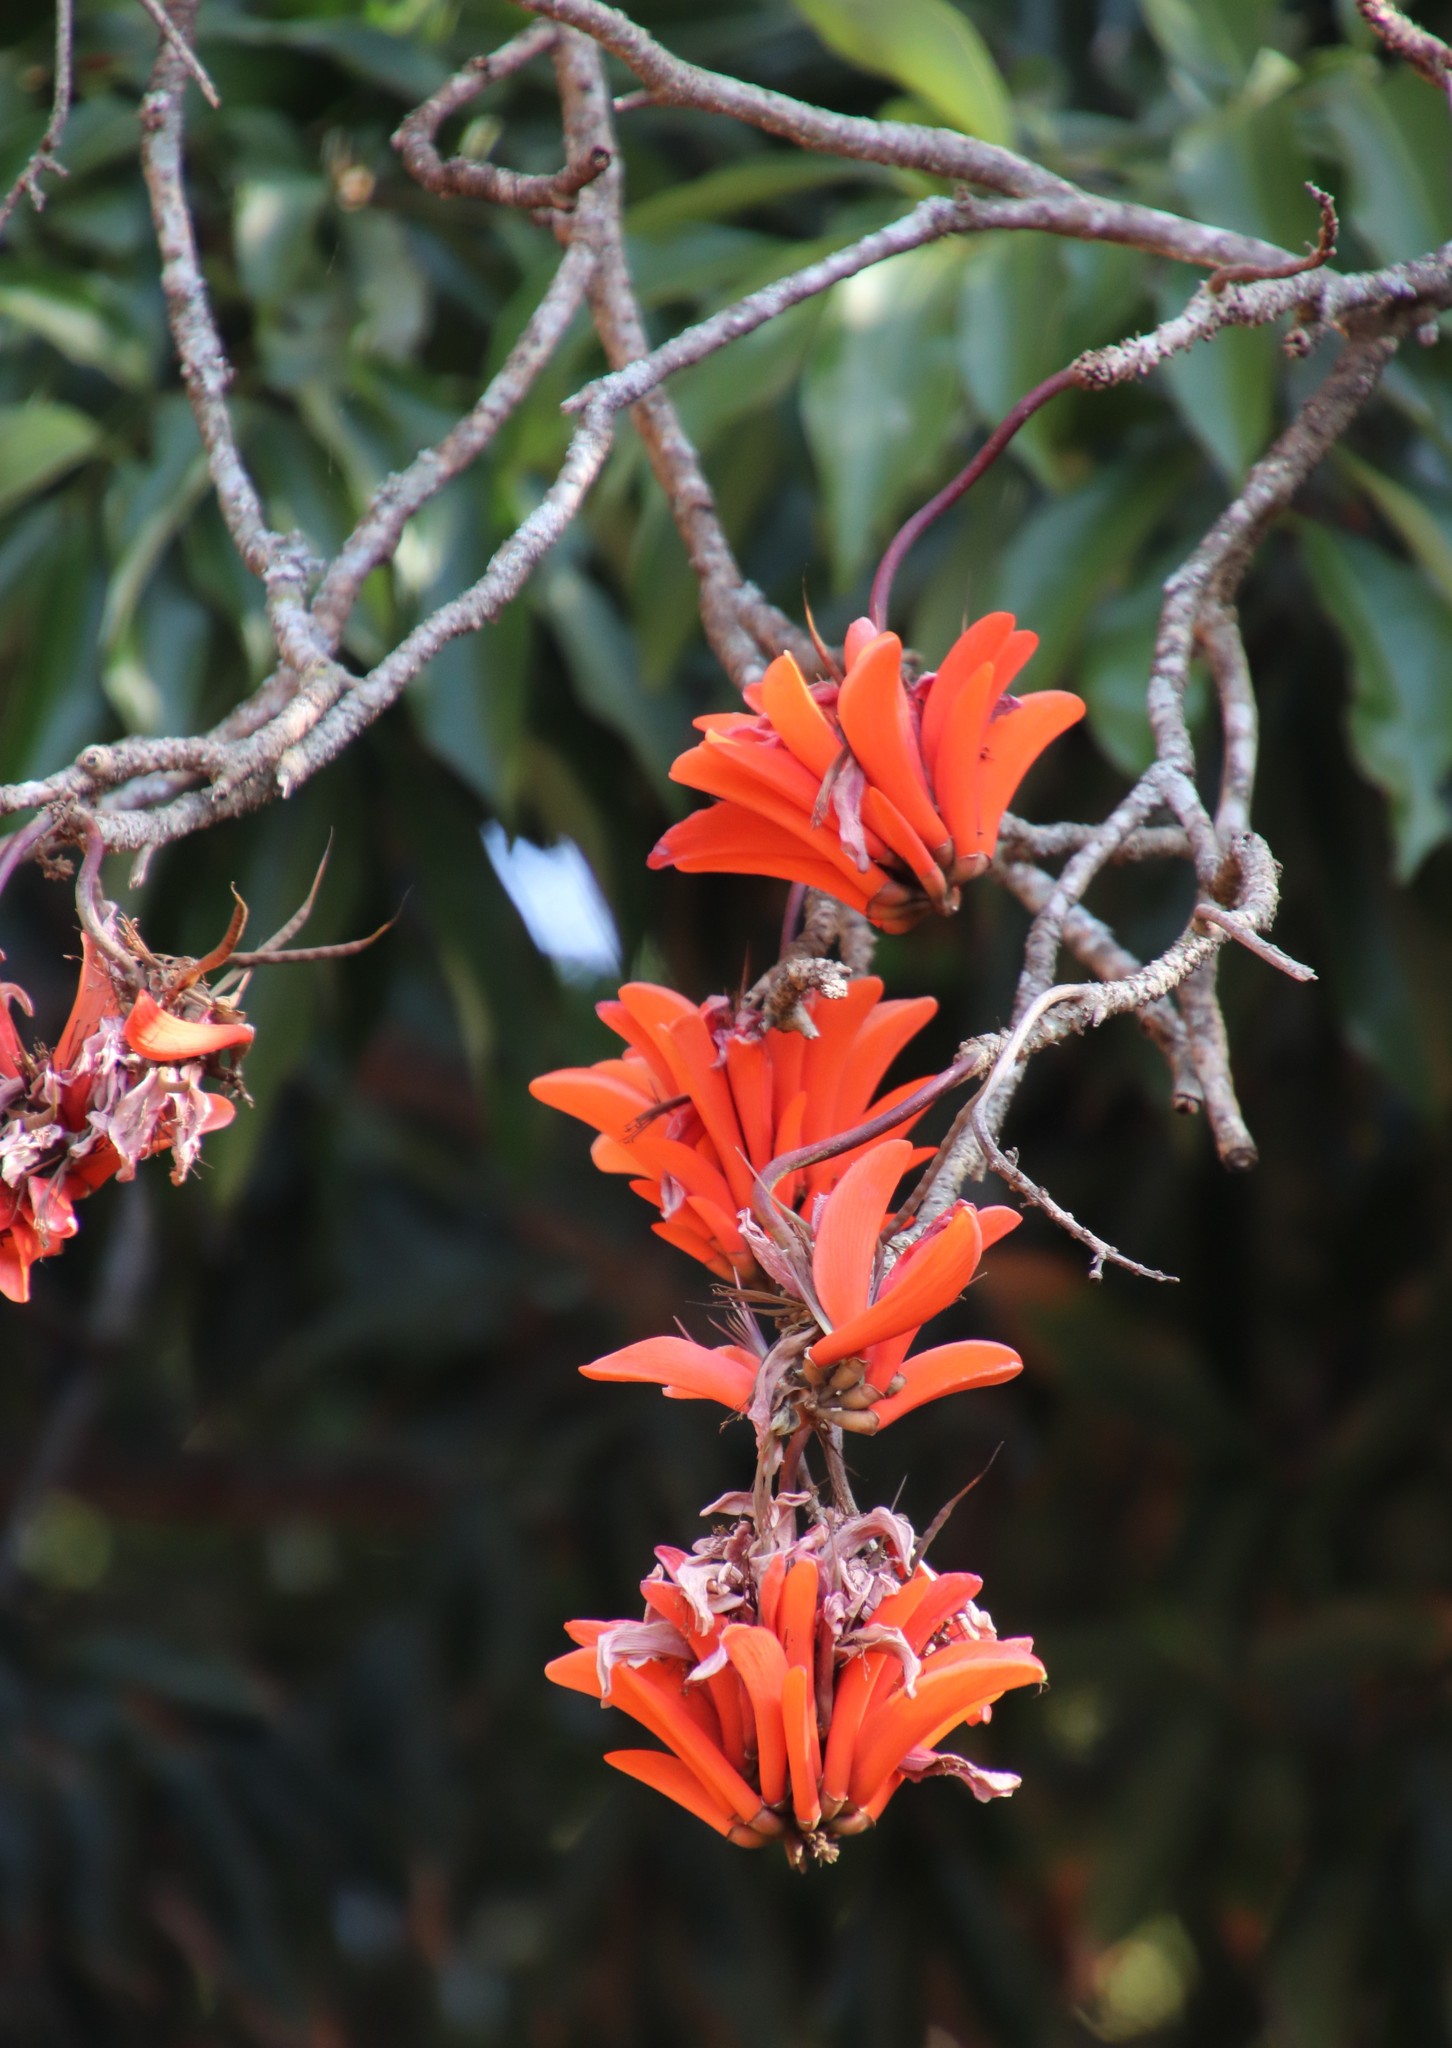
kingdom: Plantae
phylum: Tracheophyta
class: Magnoliopsida
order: Fabales
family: Fabaceae
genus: Erythrina
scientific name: Erythrina lysistemon
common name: Common coral tree
